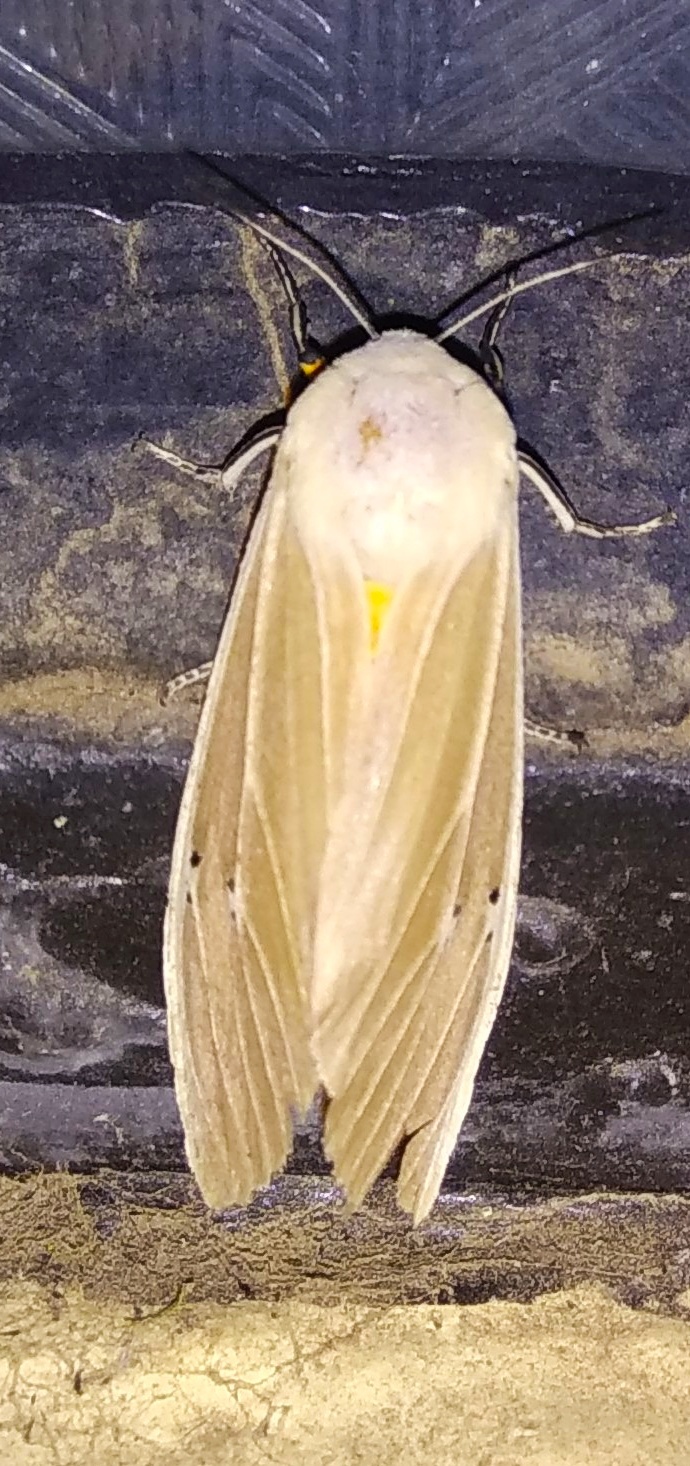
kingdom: Animalia
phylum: Arthropoda
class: Insecta
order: Lepidoptera
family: Erebidae
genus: Creatonotos
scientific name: Creatonotos transiens
